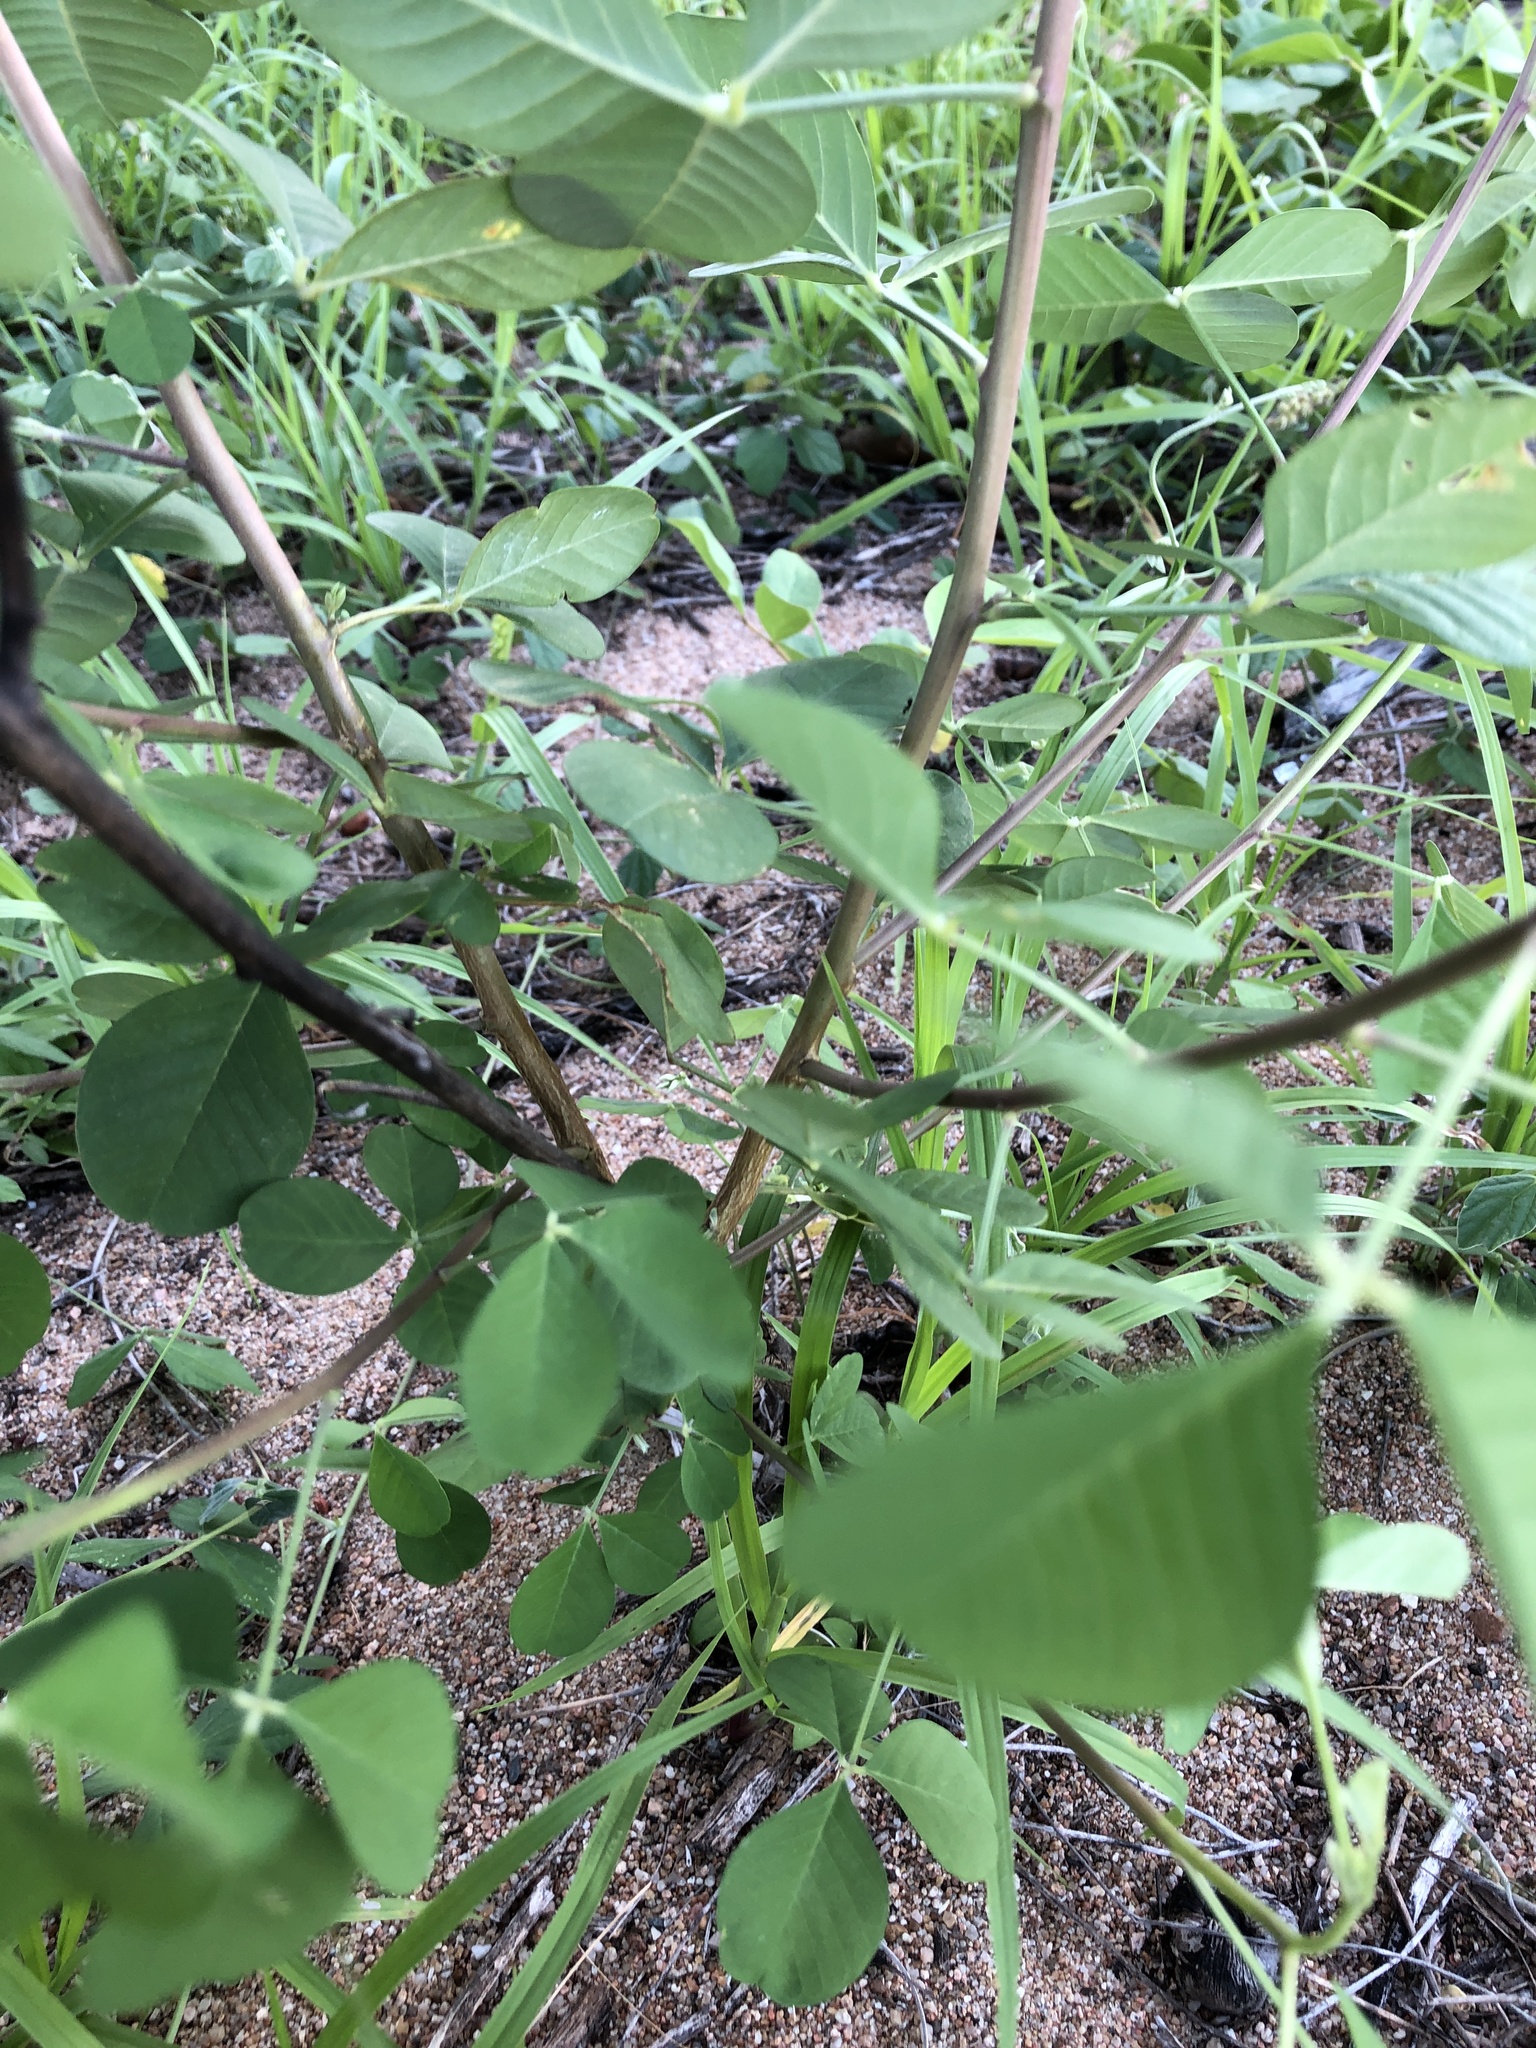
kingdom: Plantae
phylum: Tracheophyta
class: Magnoliopsida
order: Fabales
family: Fabaceae
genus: Crotalaria
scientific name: Crotalaria pallida
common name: Smooth rattlebox
